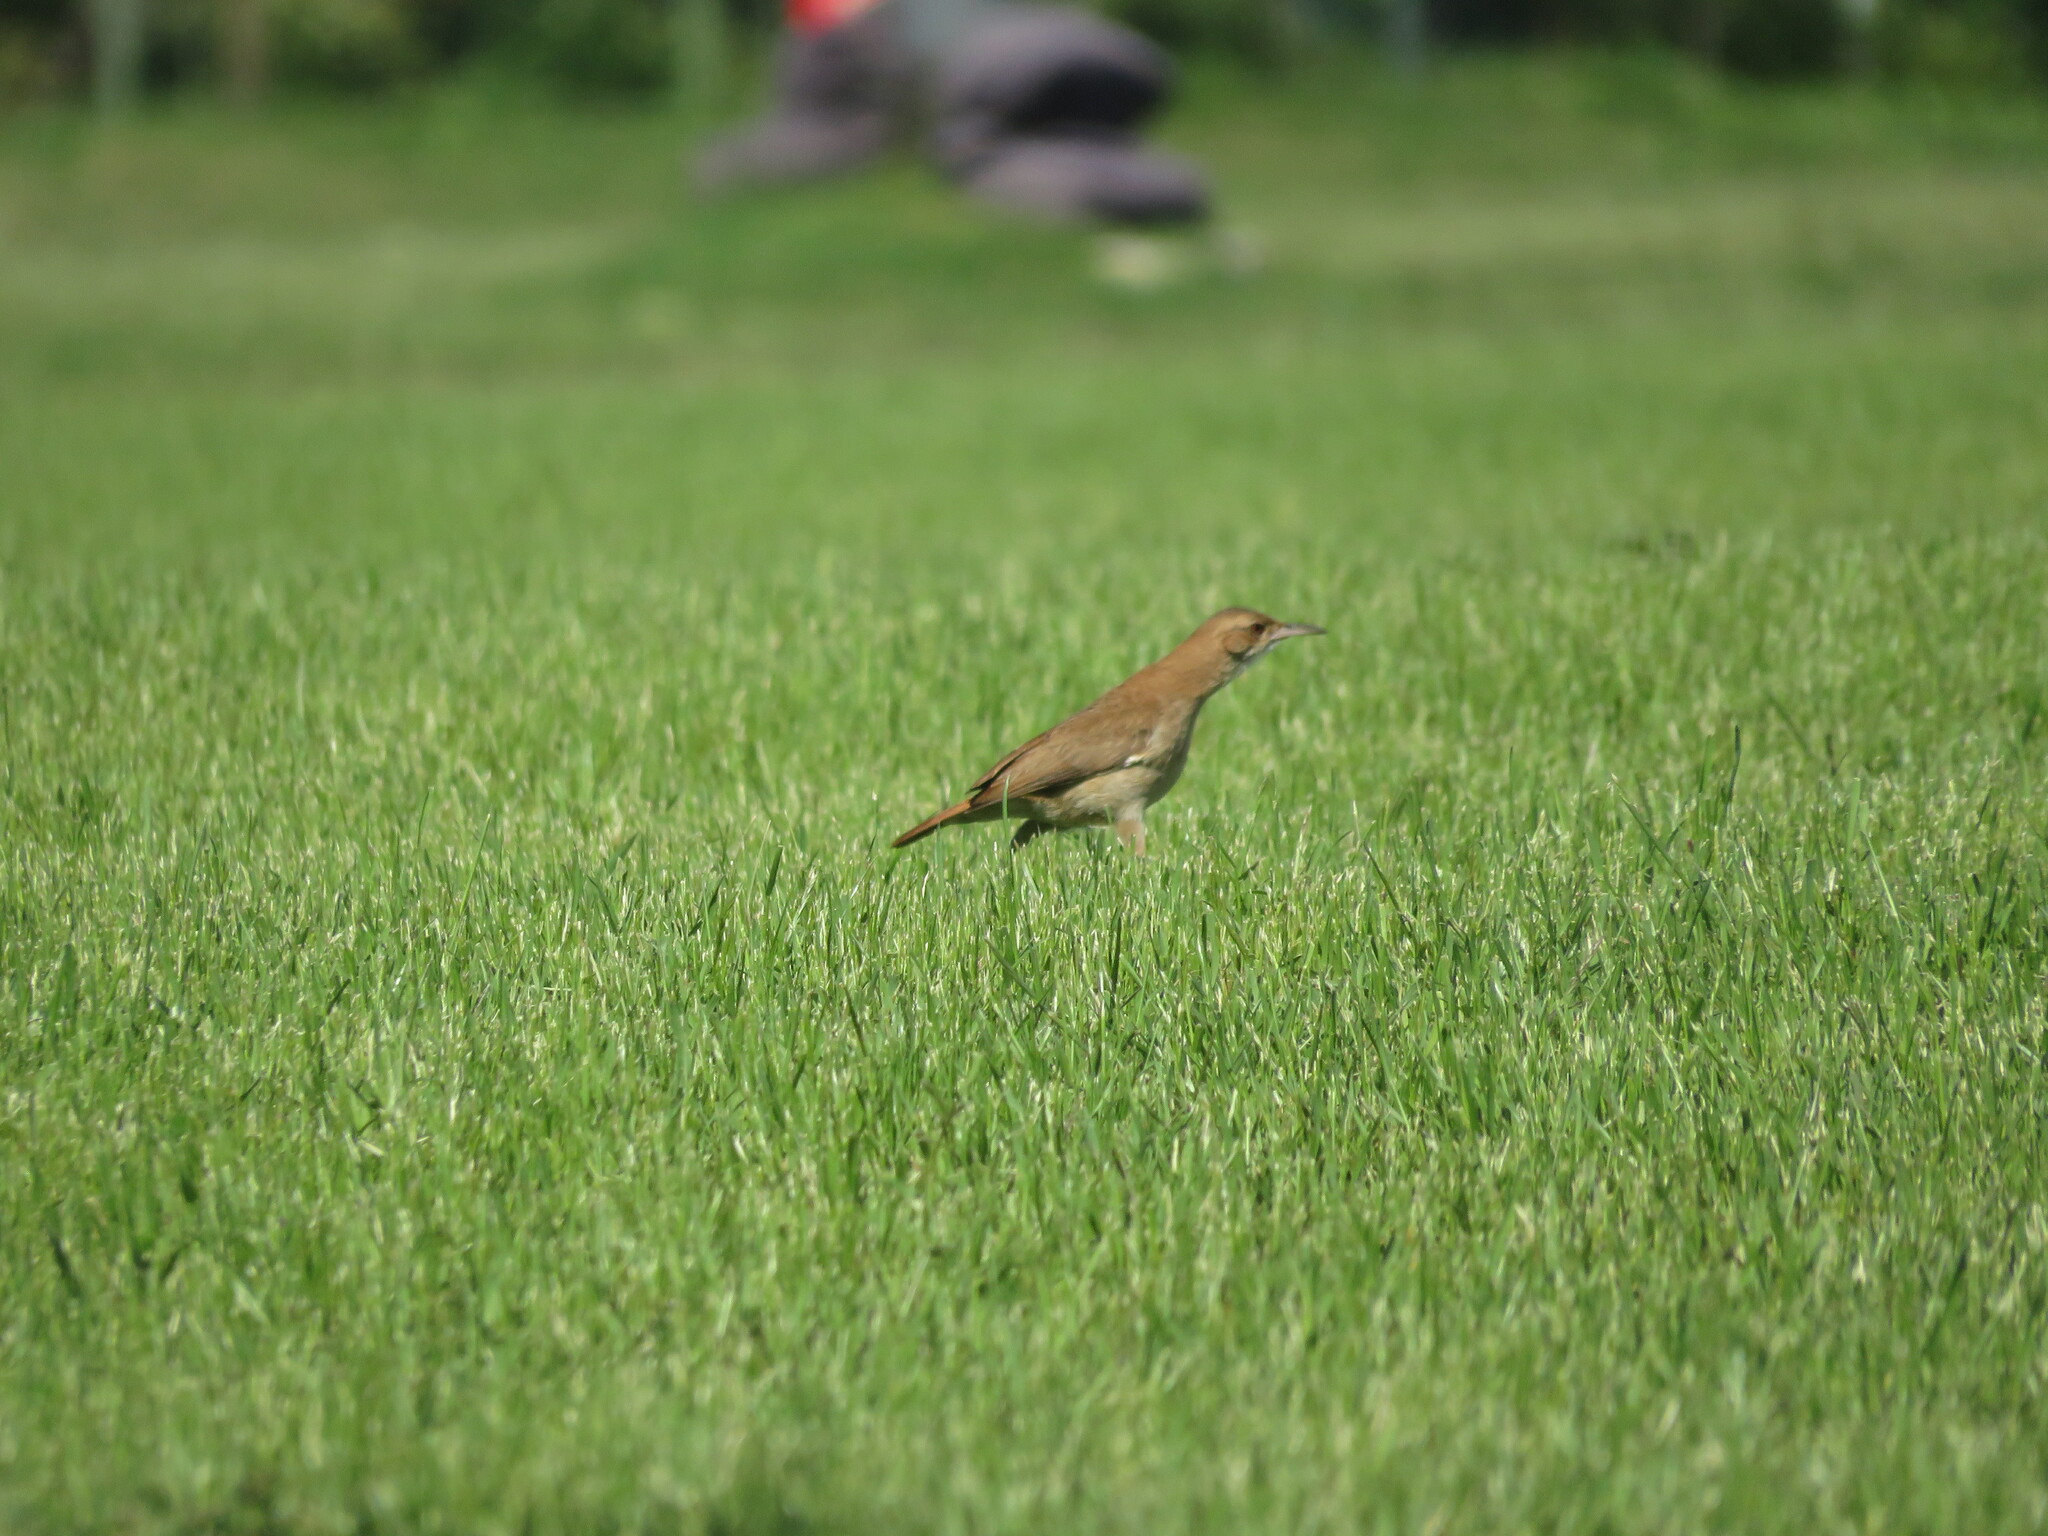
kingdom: Animalia
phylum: Chordata
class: Aves
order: Passeriformes
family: Furnariidae
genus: Furnarius
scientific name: Furnarius rufus
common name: Rufous hornero
